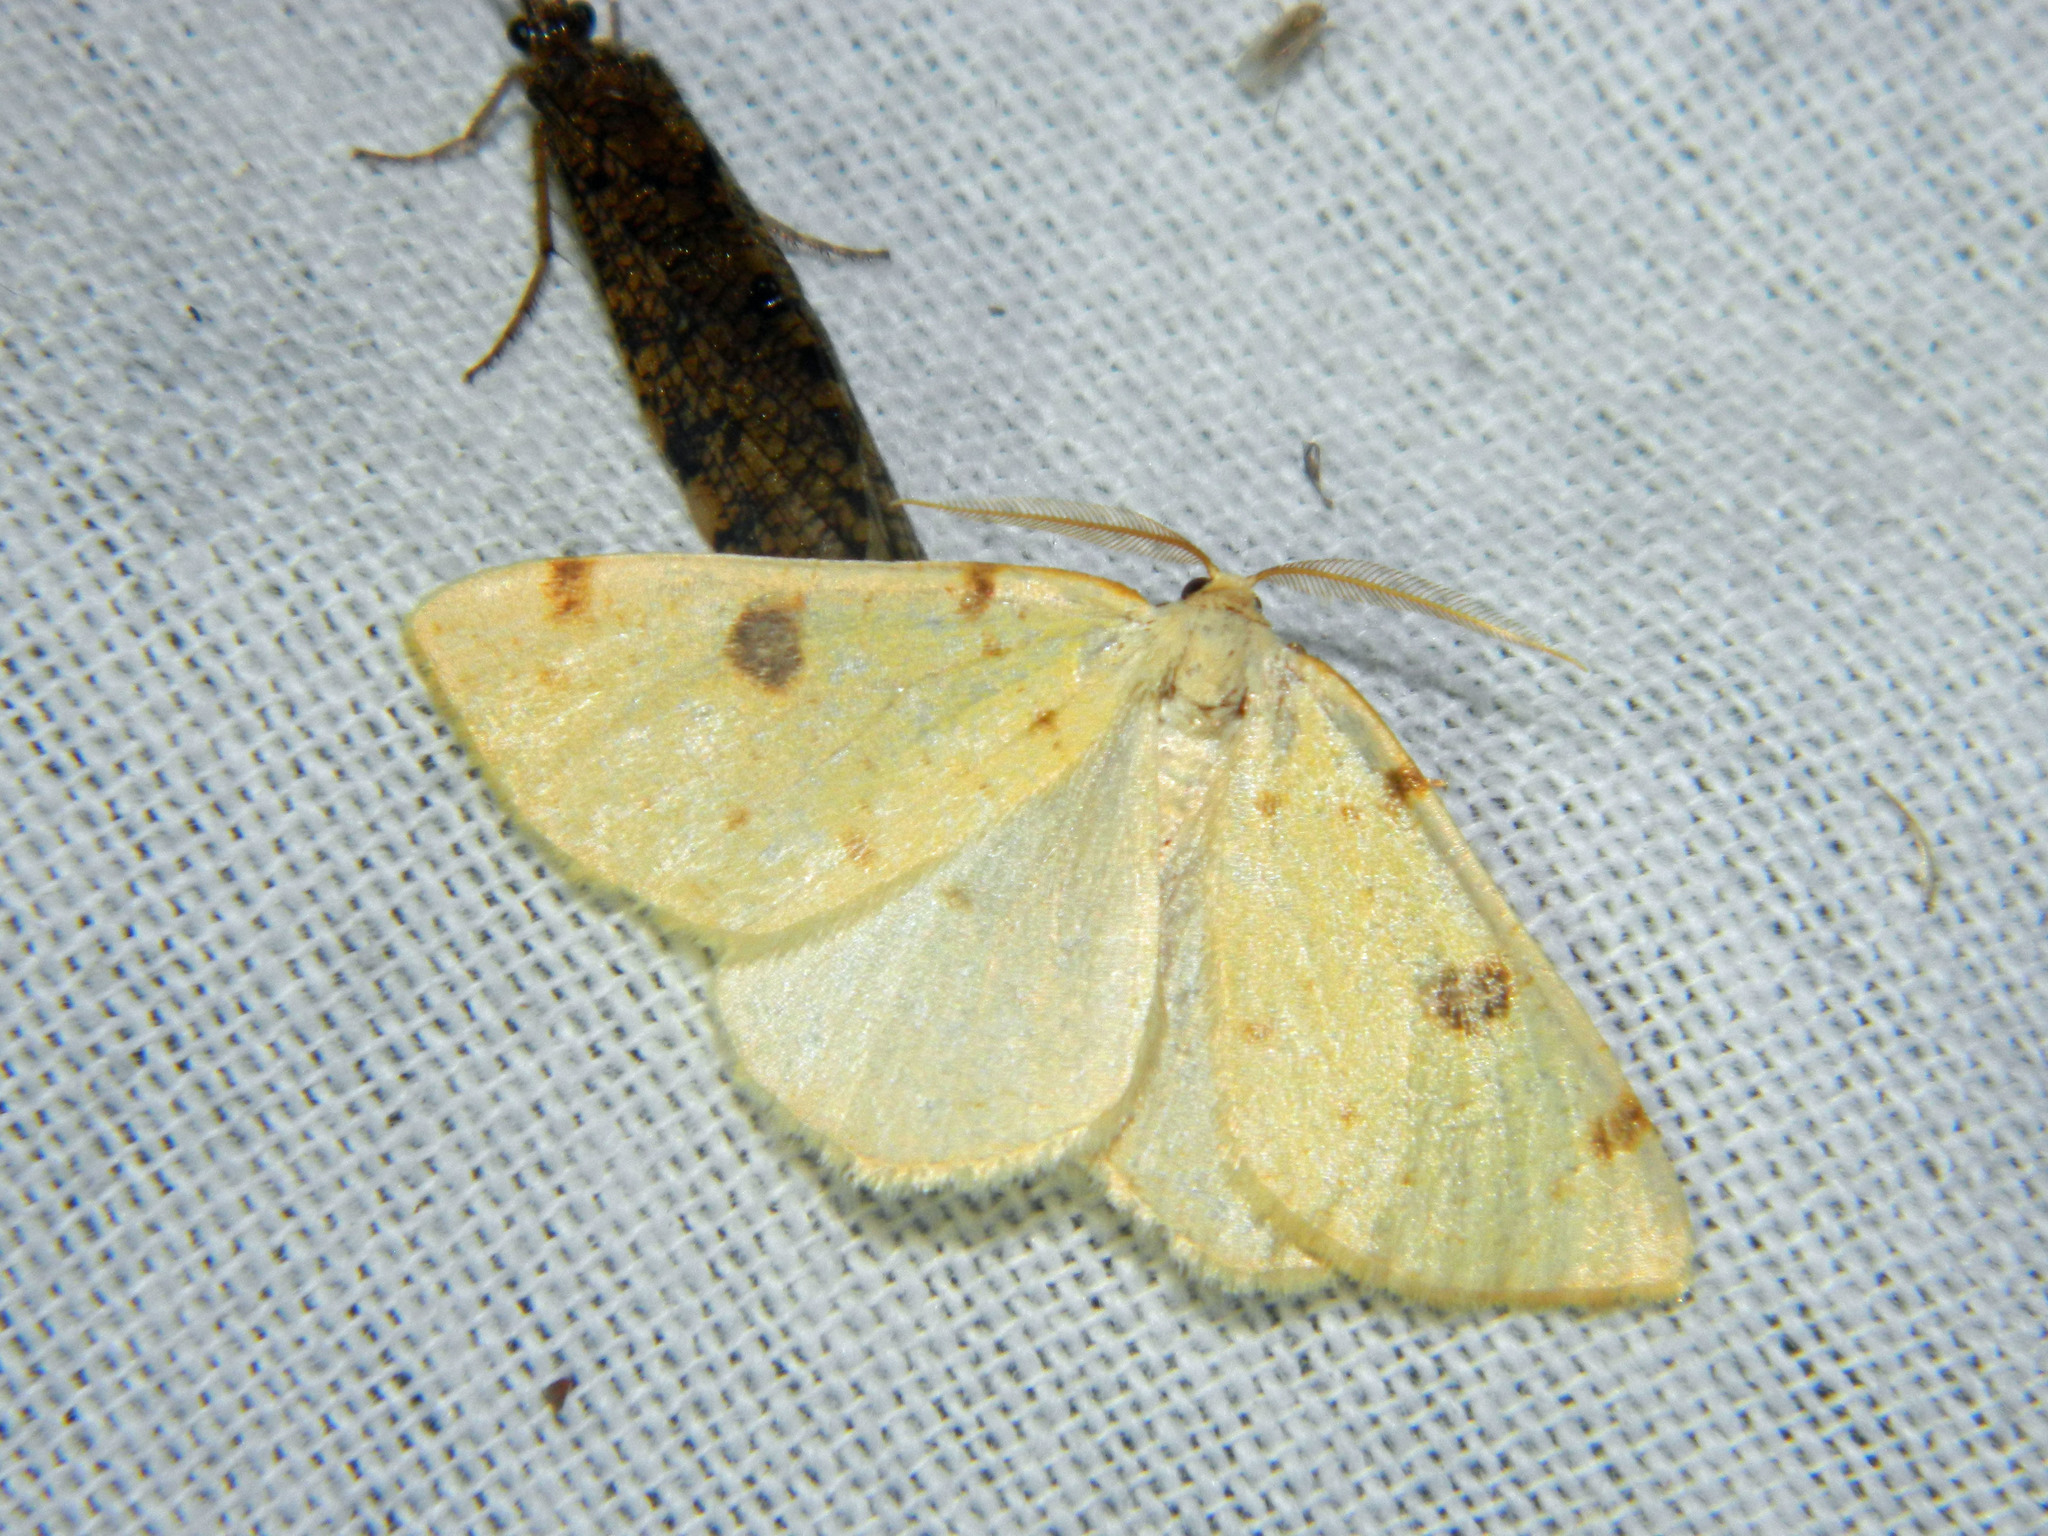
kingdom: Animalia
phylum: Arthropoda
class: Insecta
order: Lepidoptera
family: Geometridae
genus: Hesperumia
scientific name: Hesperumia sulphuraria
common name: Sulphur moth
